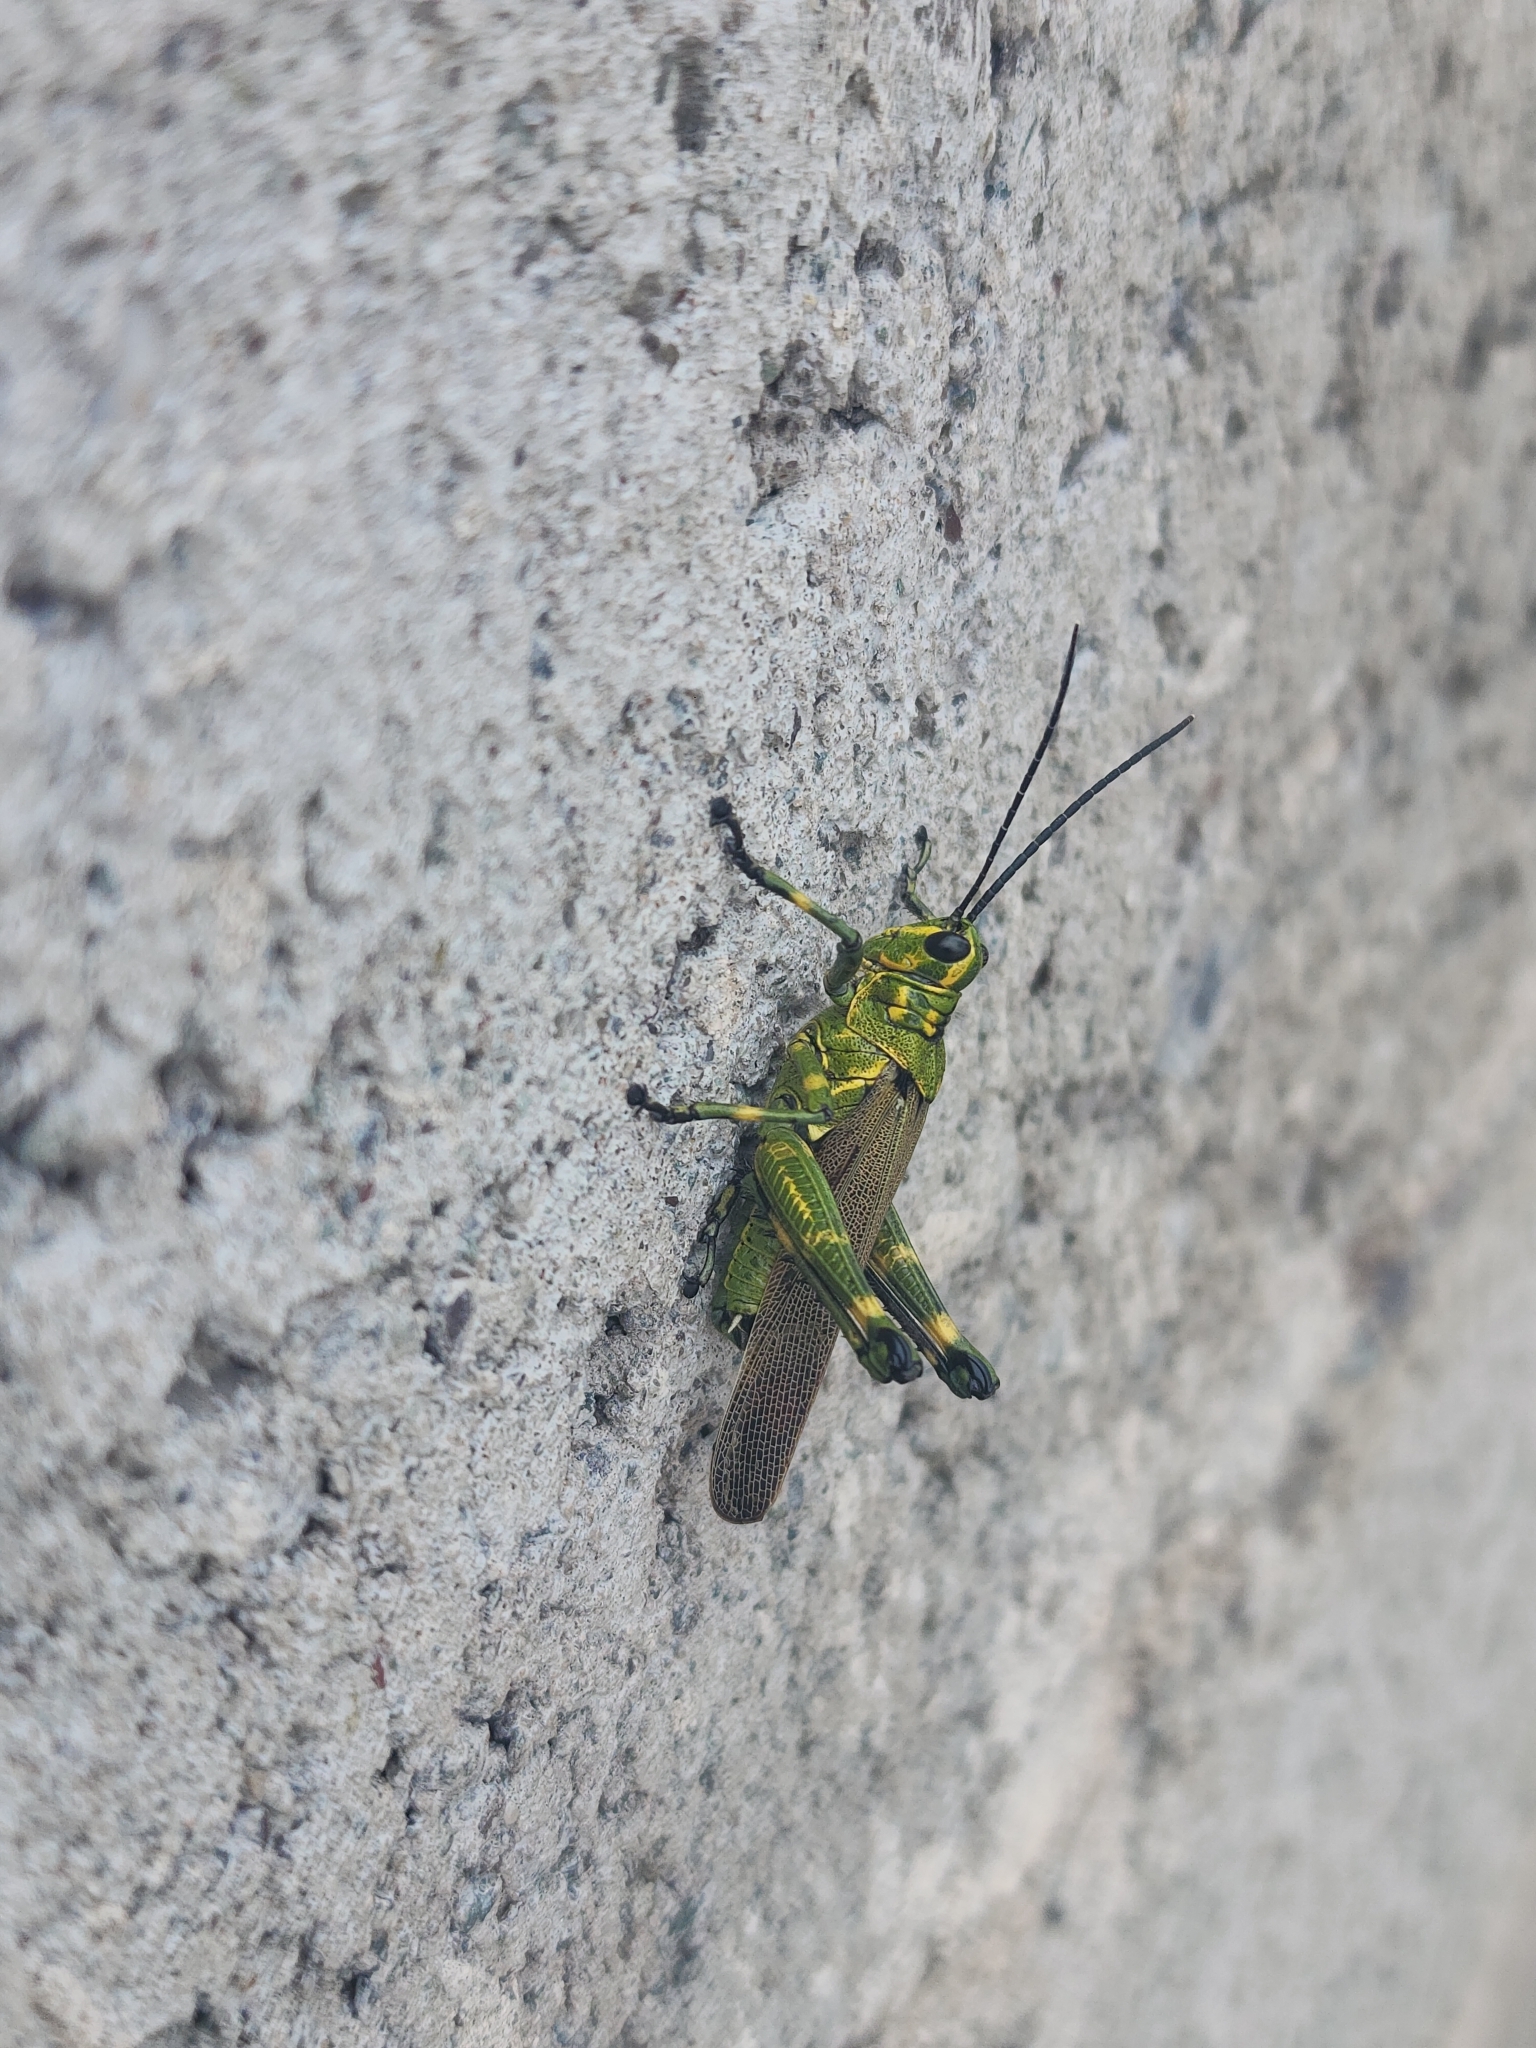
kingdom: Animalia
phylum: Arthropoda
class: Insecta
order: Orthoptera
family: Romaleidae
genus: Chromacris
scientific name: Chromacris speciosa
